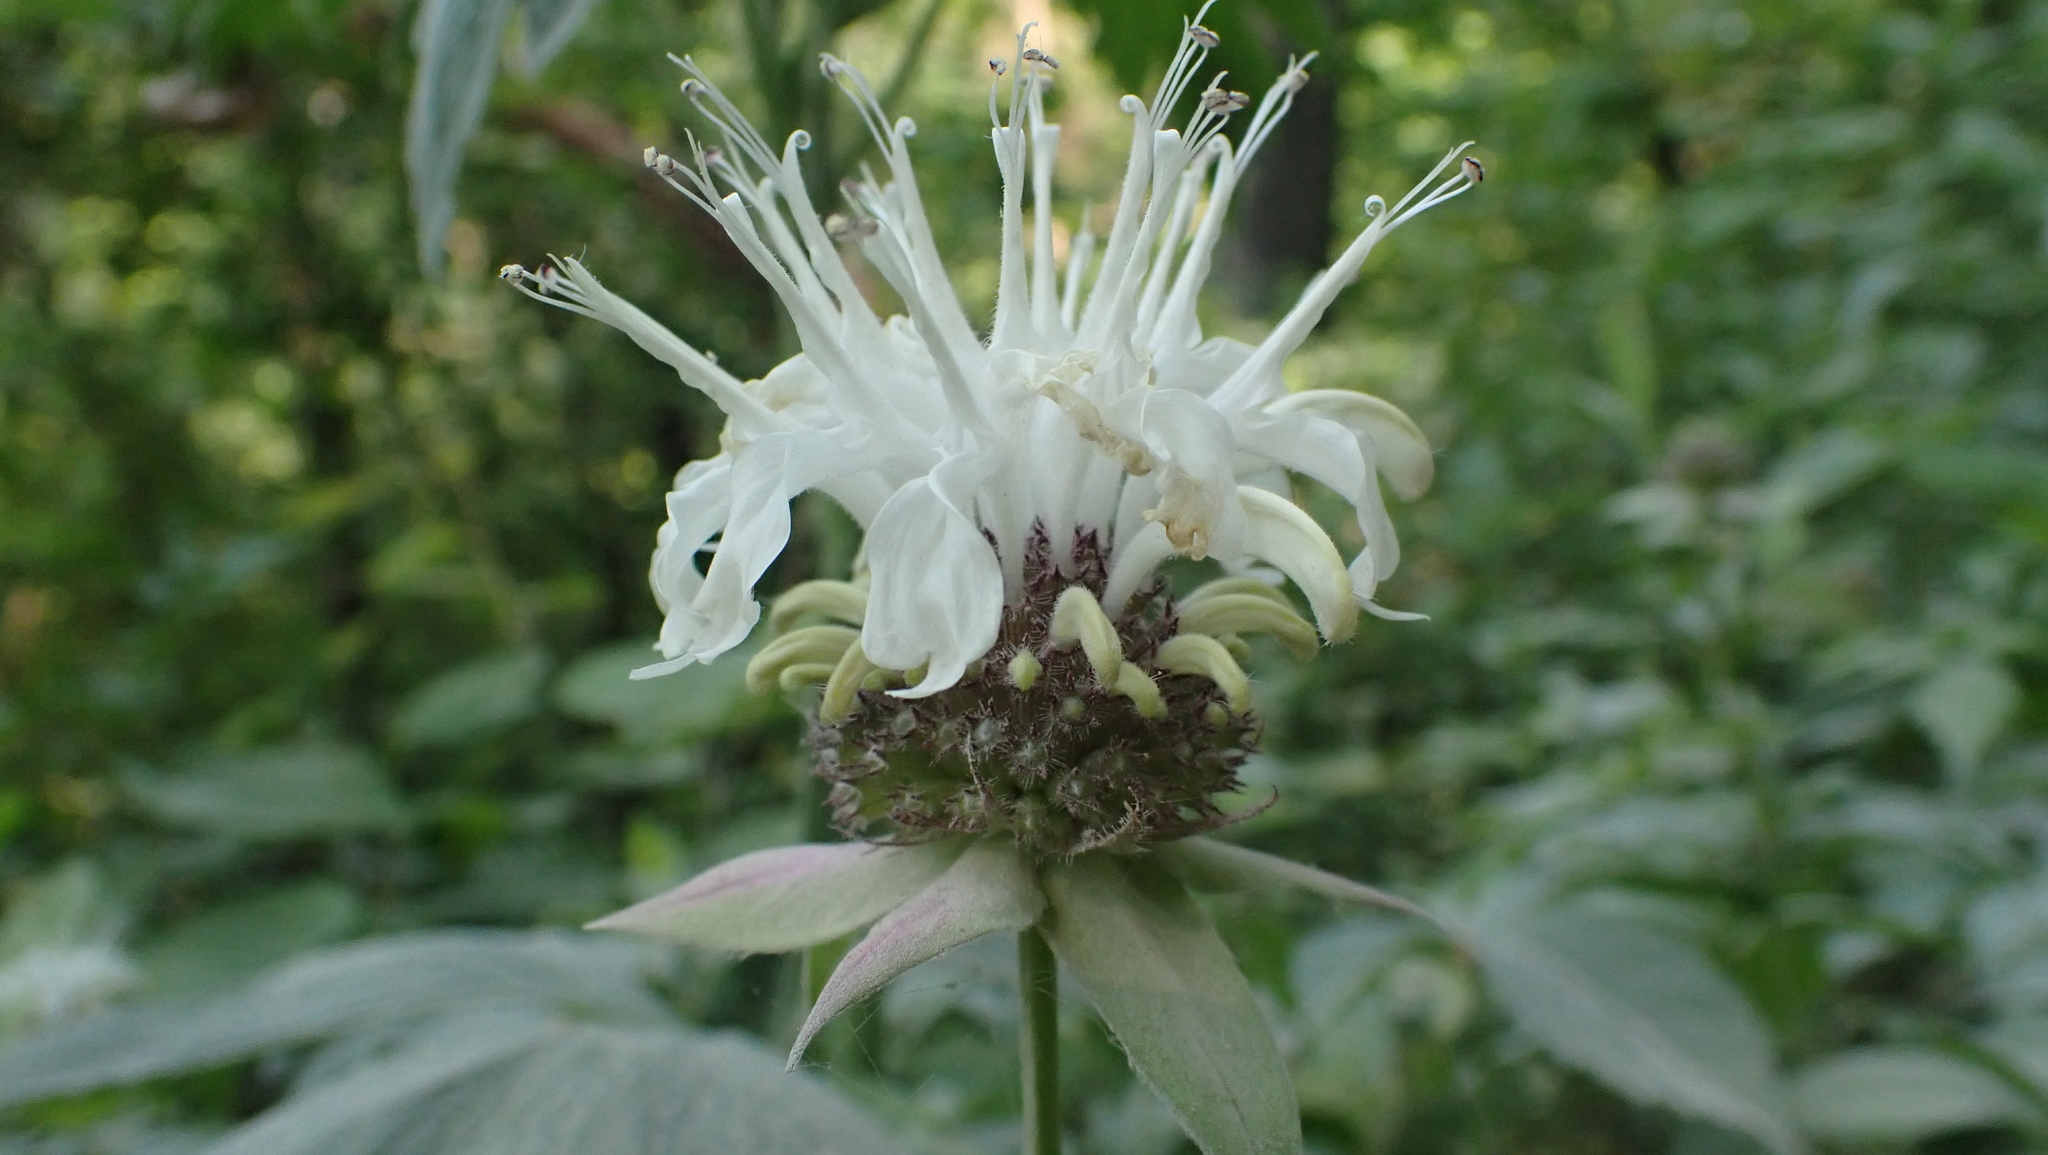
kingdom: Plantae
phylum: Tracheophyta
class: Magnoliopsida
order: Lamiales
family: Lamiaceae
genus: Monarda
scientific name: Monarda clinopodia
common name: Basil beebalm
